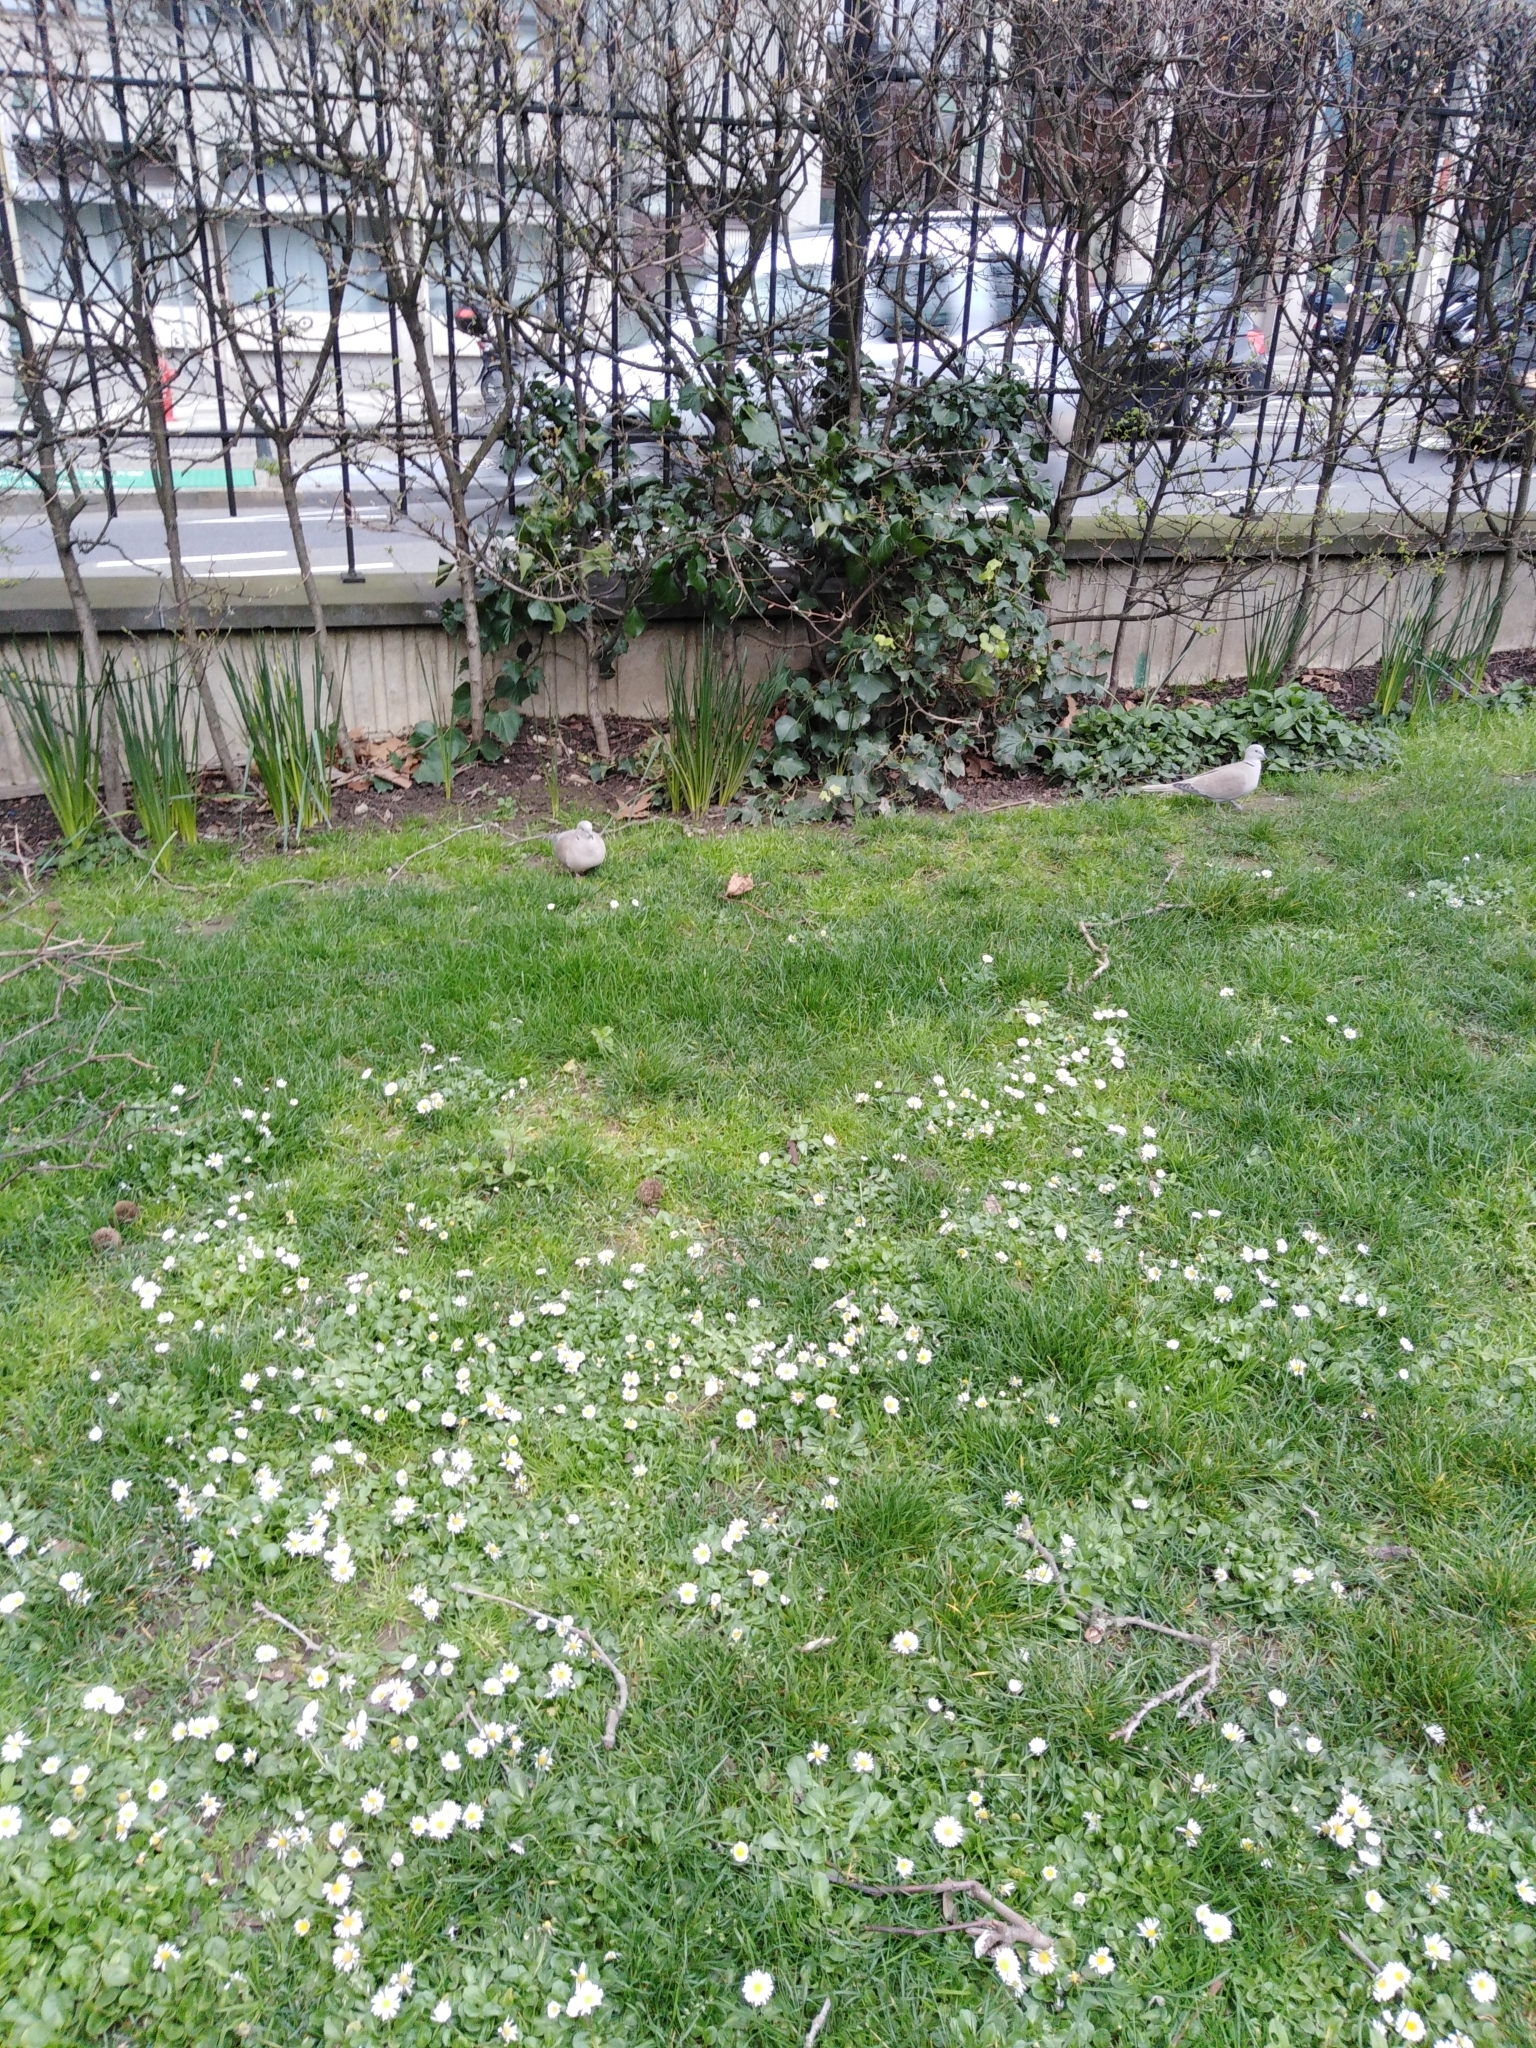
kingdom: Animalia
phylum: Chordata
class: Aves
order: Columbiformes
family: Columbidae
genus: Streptopelia
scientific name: Streptopelia decaocto
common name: Eurasian collared dove
